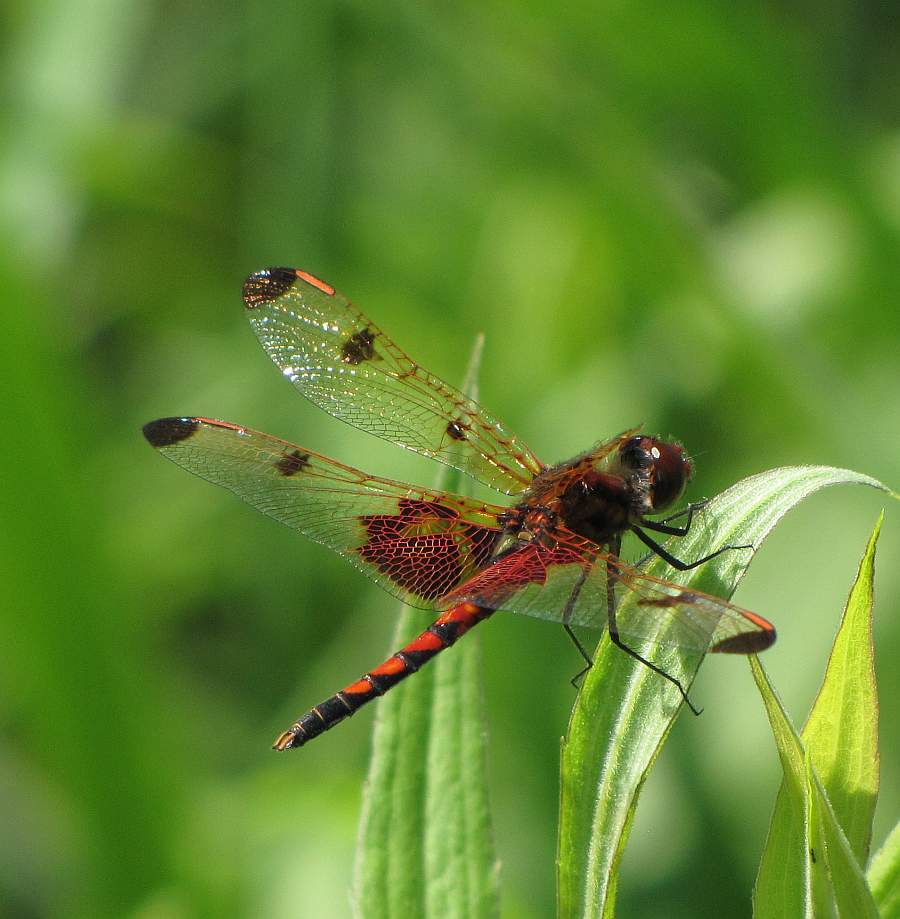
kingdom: Animalia
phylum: Arthropoda
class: Insecta
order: Odonata
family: Libellulidae
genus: Celithemis
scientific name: Celithemis elisa
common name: Calico pennant
